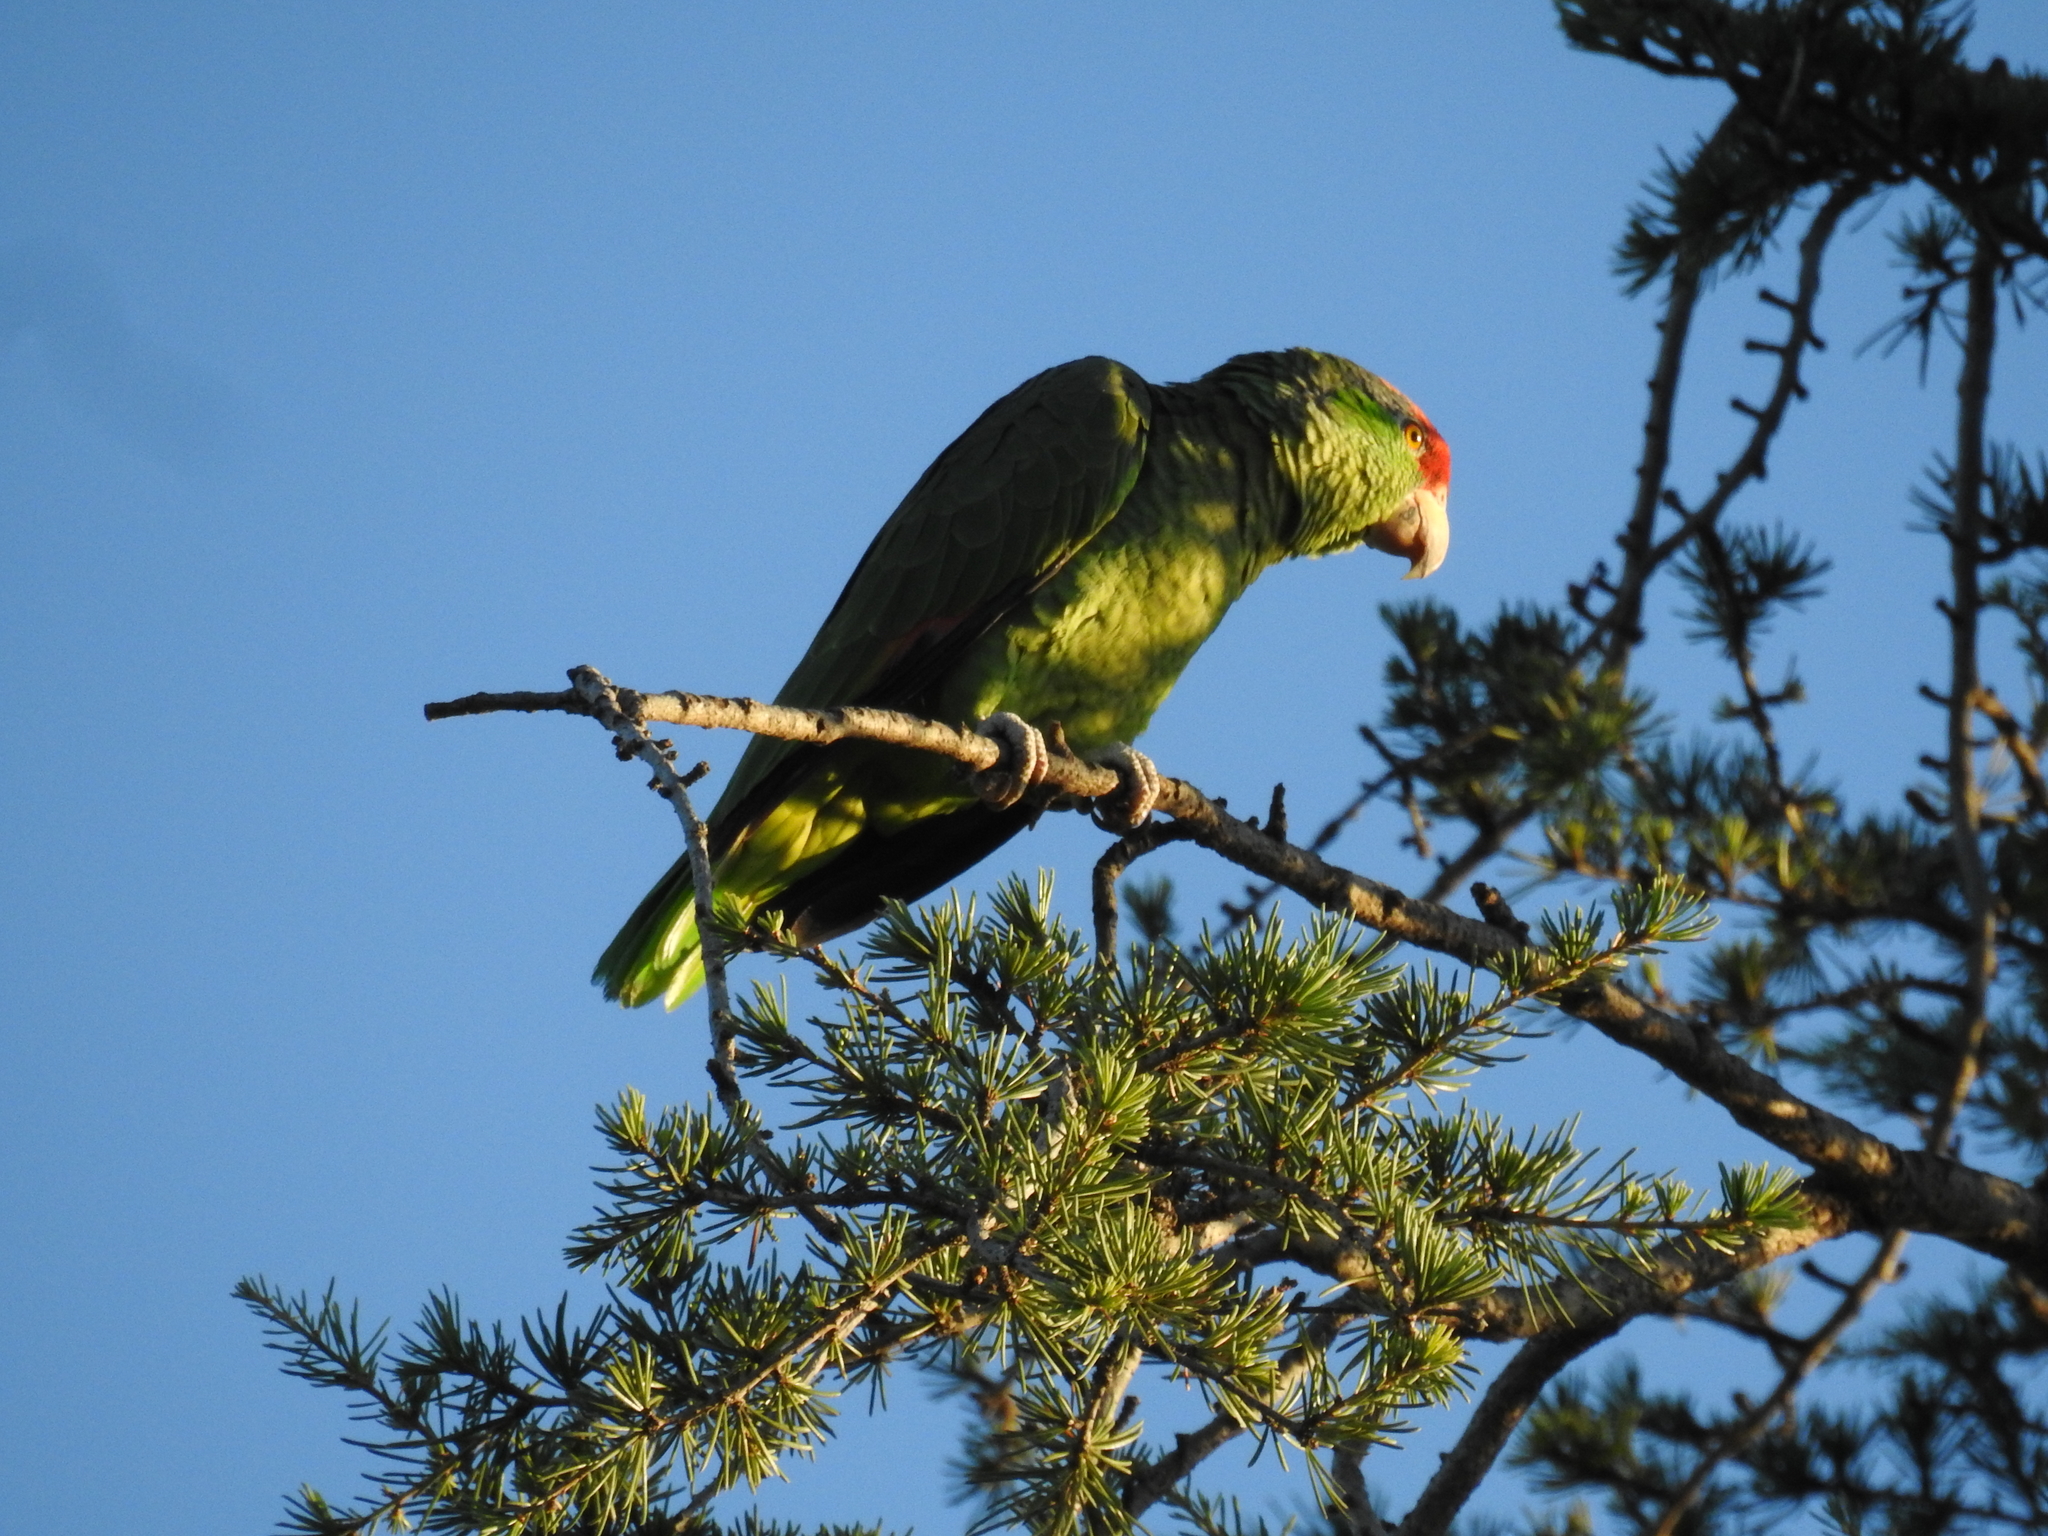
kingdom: Animalia
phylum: Chordata
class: Aves
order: Psittaciformes
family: Psittacidae
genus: Amazona
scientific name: Amazona viridigenalis
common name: Red-crowned amazon
